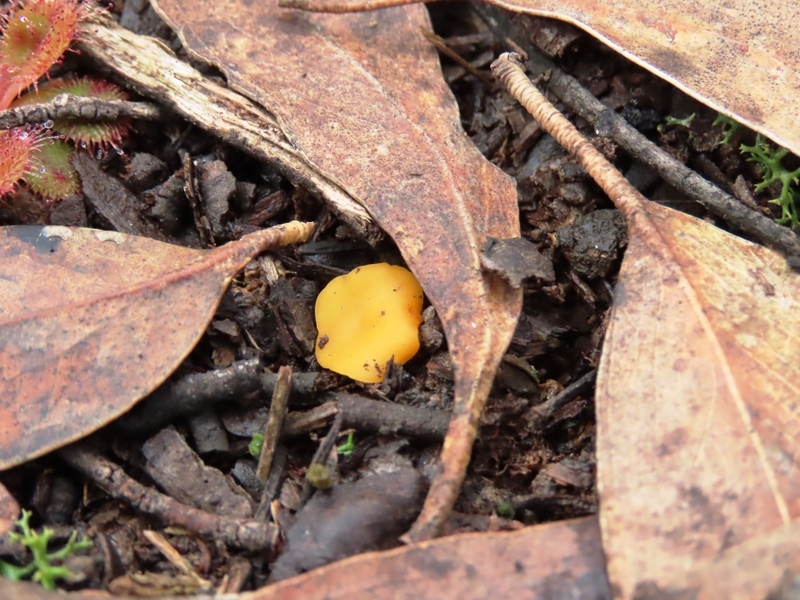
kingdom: Fungi
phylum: Ascomycota
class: Leotiomycetes
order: Helotiales
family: Helotiaceae
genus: Phaeohelotium
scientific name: Phaeohelotium baileyanum
